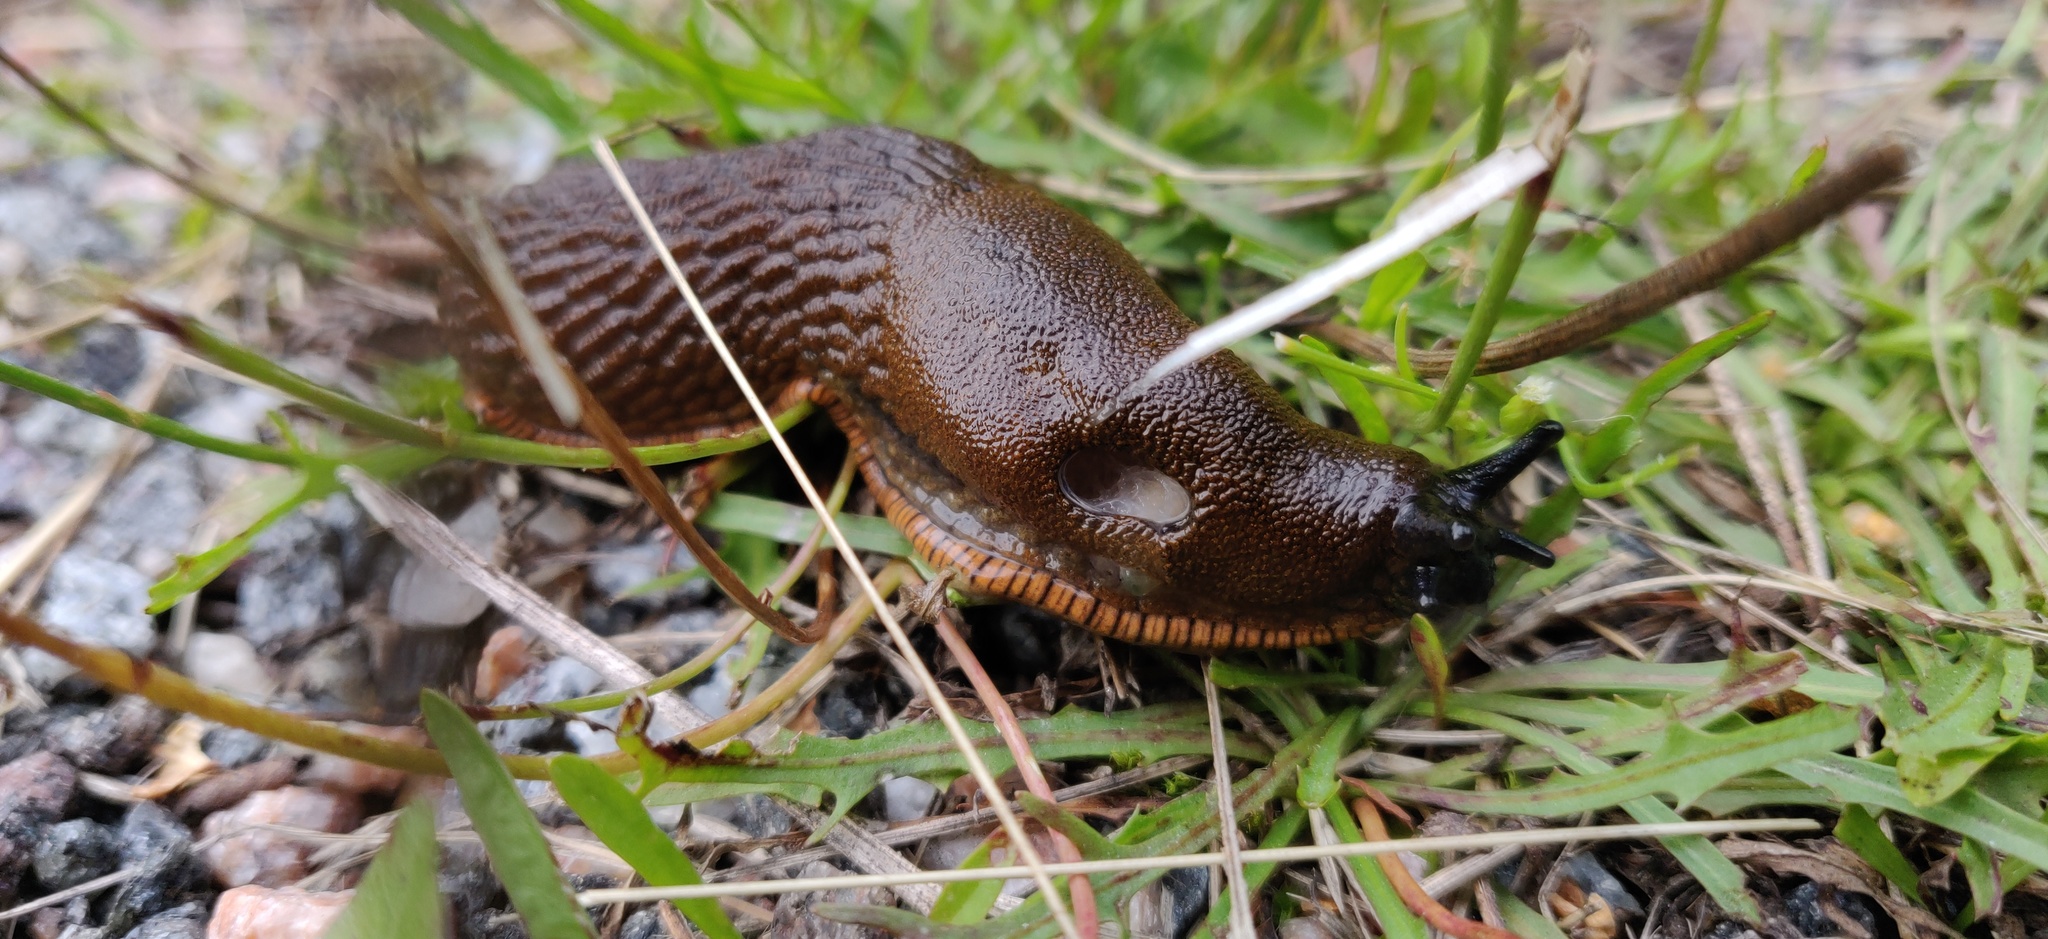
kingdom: Animalia
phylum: Mollusca
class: Gastropoda
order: Stylommatophora
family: Arionidae
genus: Arion
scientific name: Arion vulgaris
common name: Lusitanian slug
